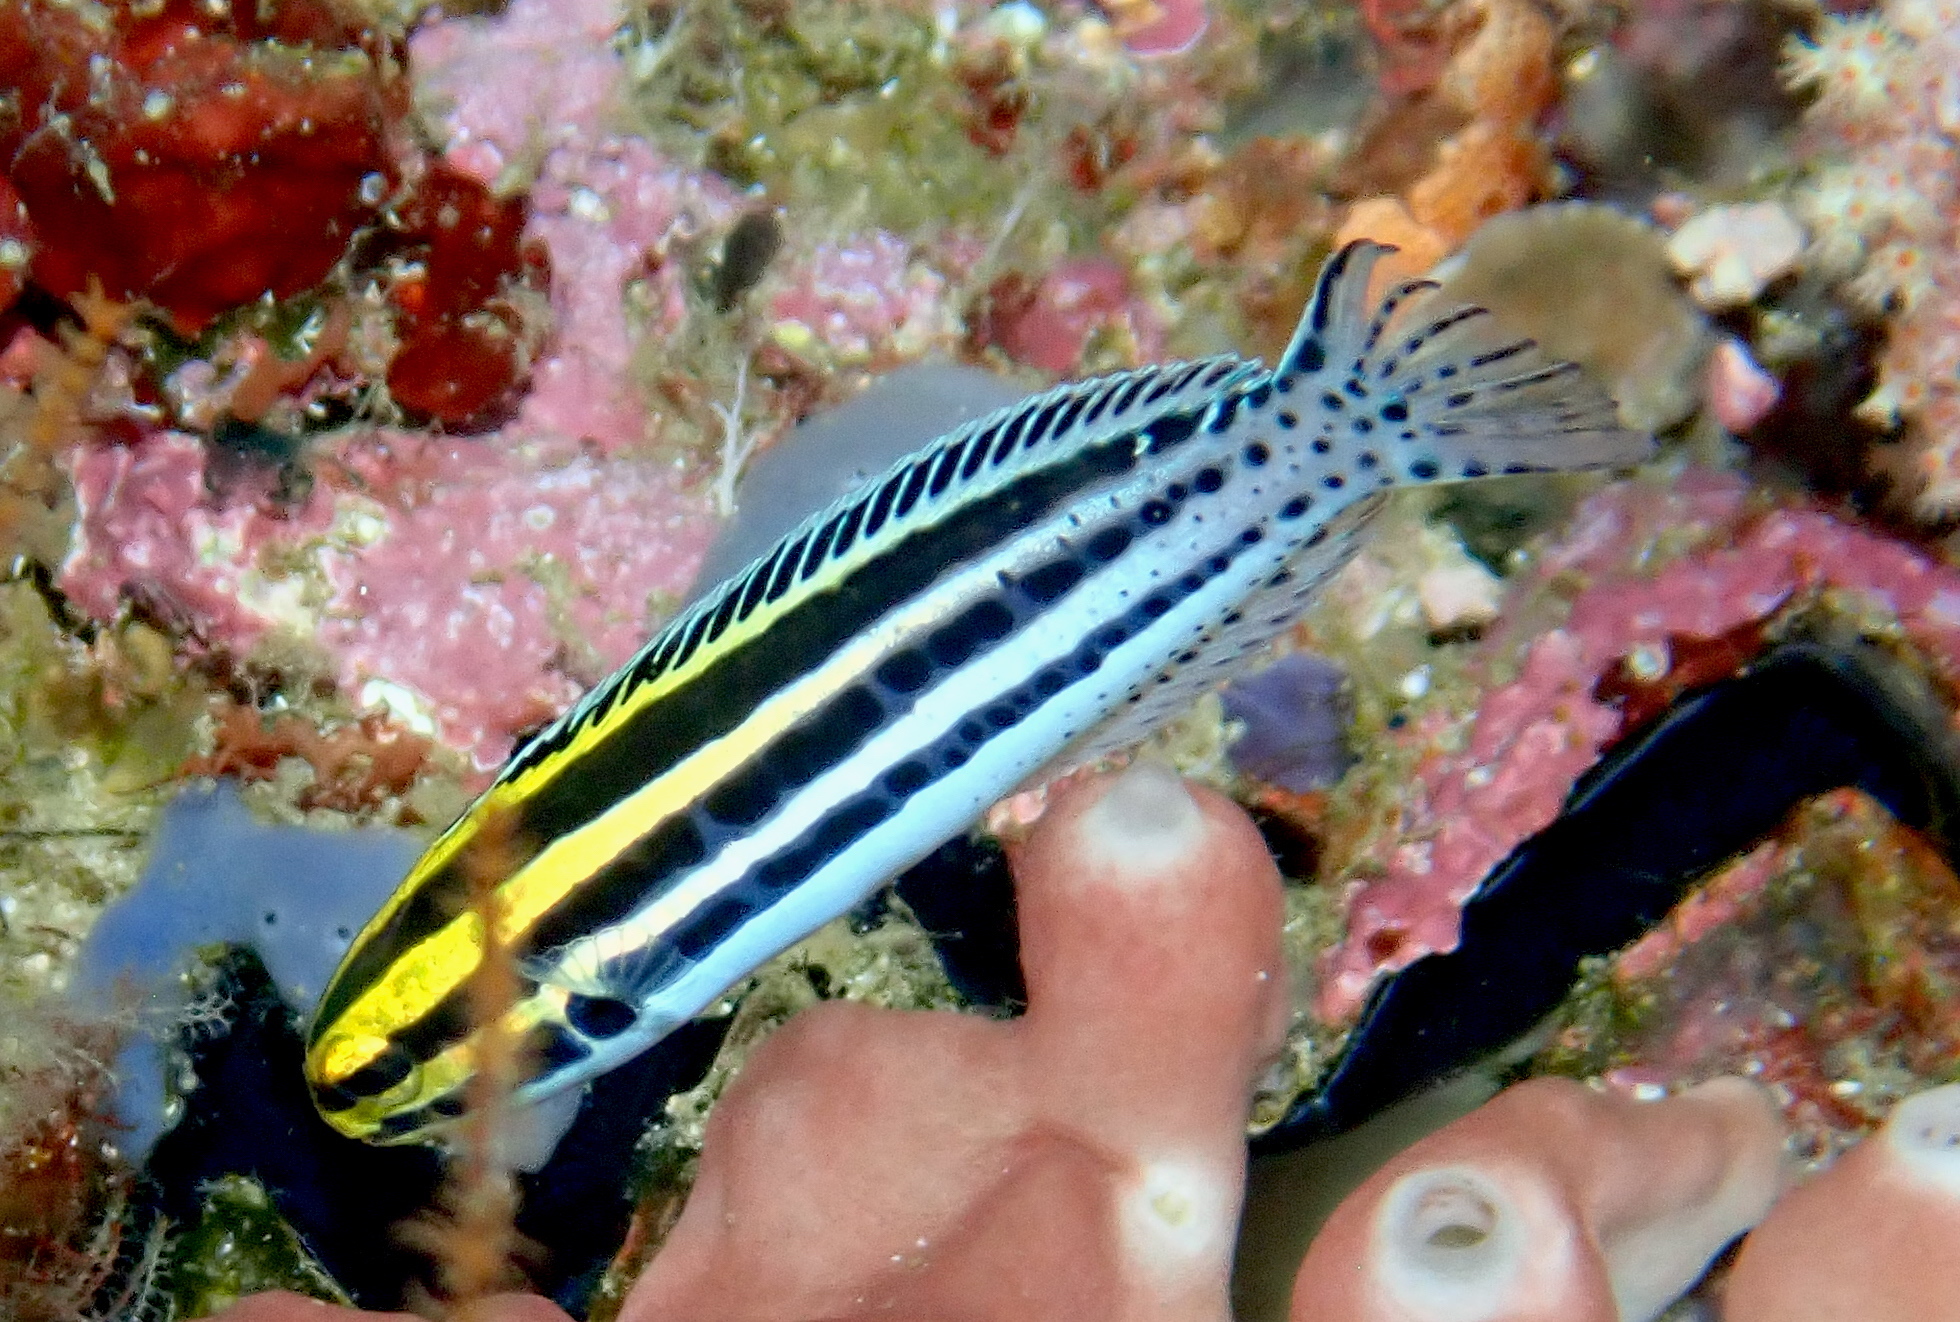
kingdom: Animalia
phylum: Chordata
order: Perciformes
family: Blenniidae
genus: Meiacanthus
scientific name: Meiacanthus grammistes
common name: Grammistes blenny
